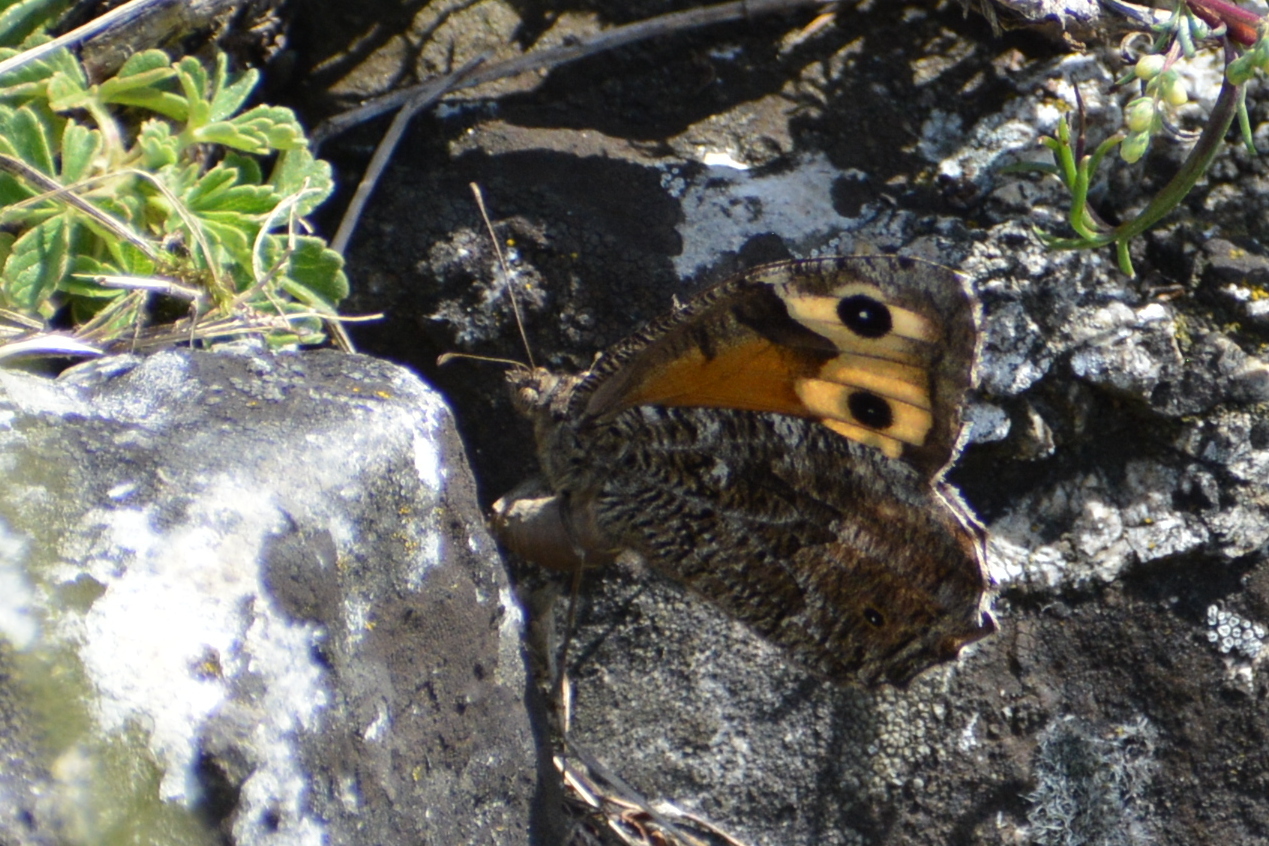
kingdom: Animalia
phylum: Arthropoda
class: Insecta
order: Lepidoptera
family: Nymphalidae
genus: Hipparchia
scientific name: Hipparchia semele
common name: Grayling
